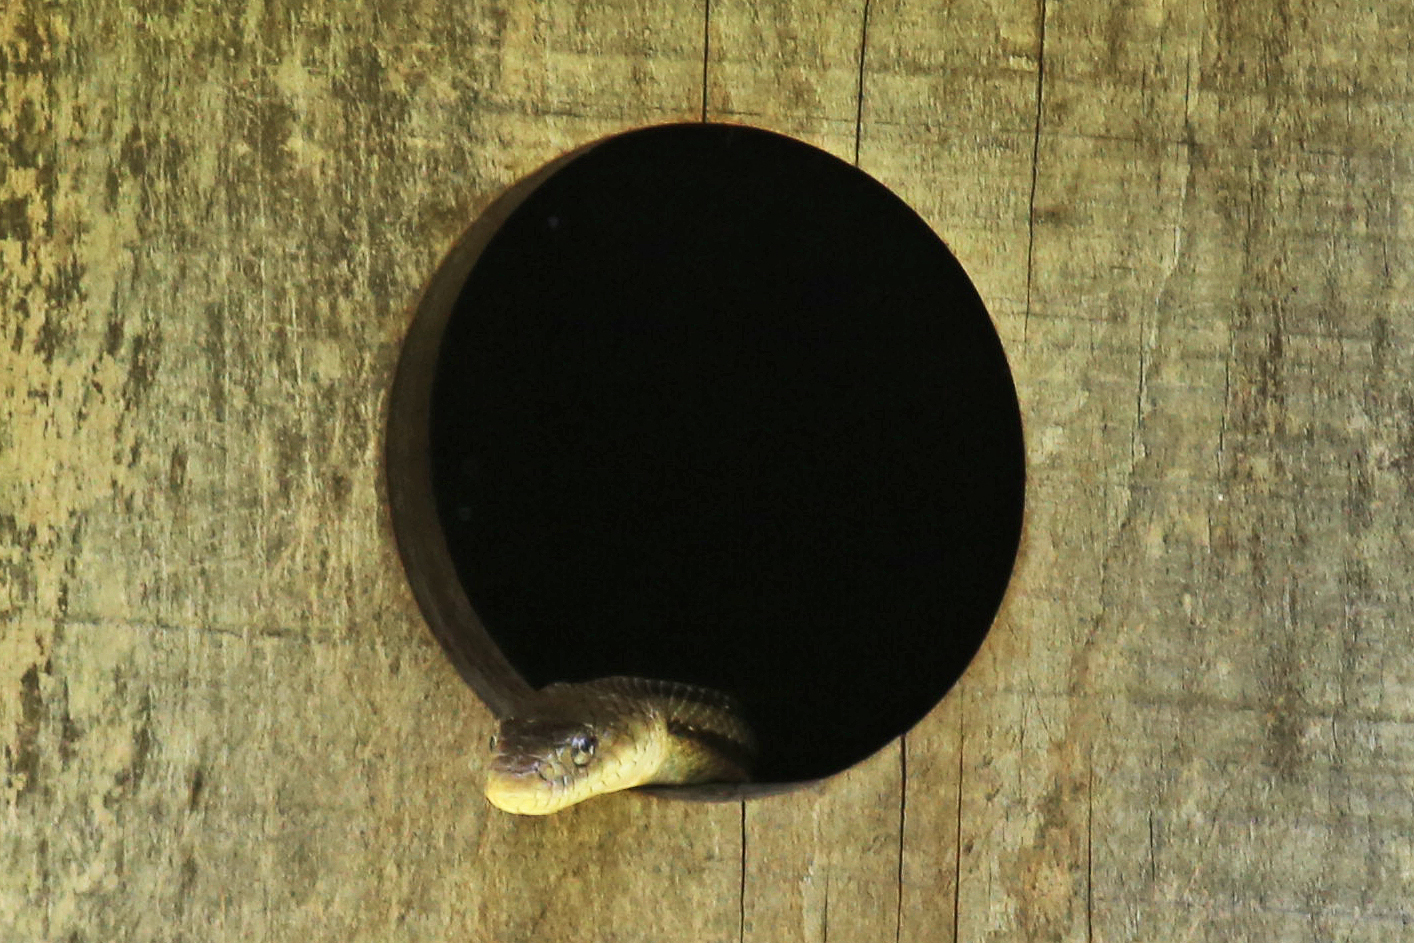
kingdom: Animalia
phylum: Chordata
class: Squamata
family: Colubridae
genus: Pantherophis
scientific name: Pantherophis alleghaniensis
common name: Eastern rat snake
